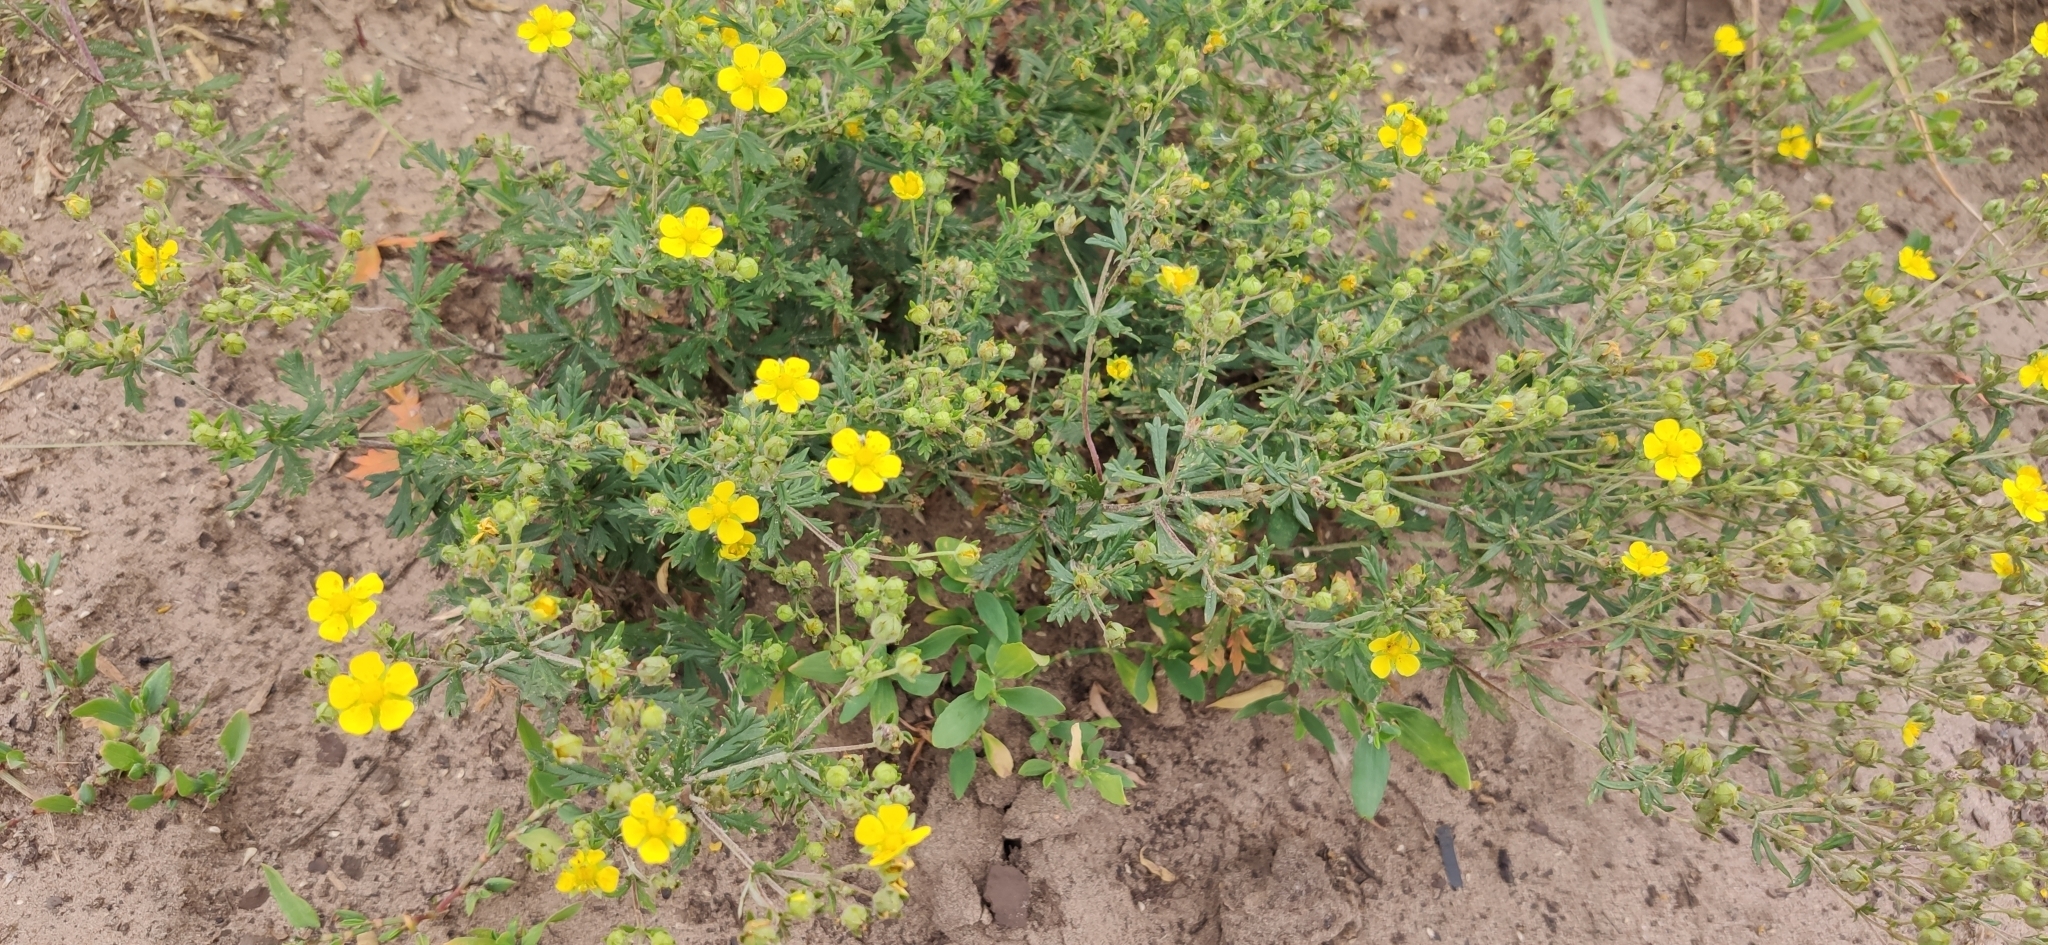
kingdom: Plantae
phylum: Tracheophyta
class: Magnoliopsida
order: Rosales
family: Rosaceae
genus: Potentilla
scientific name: Potentilla argentea
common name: Hoary cinquefoil
